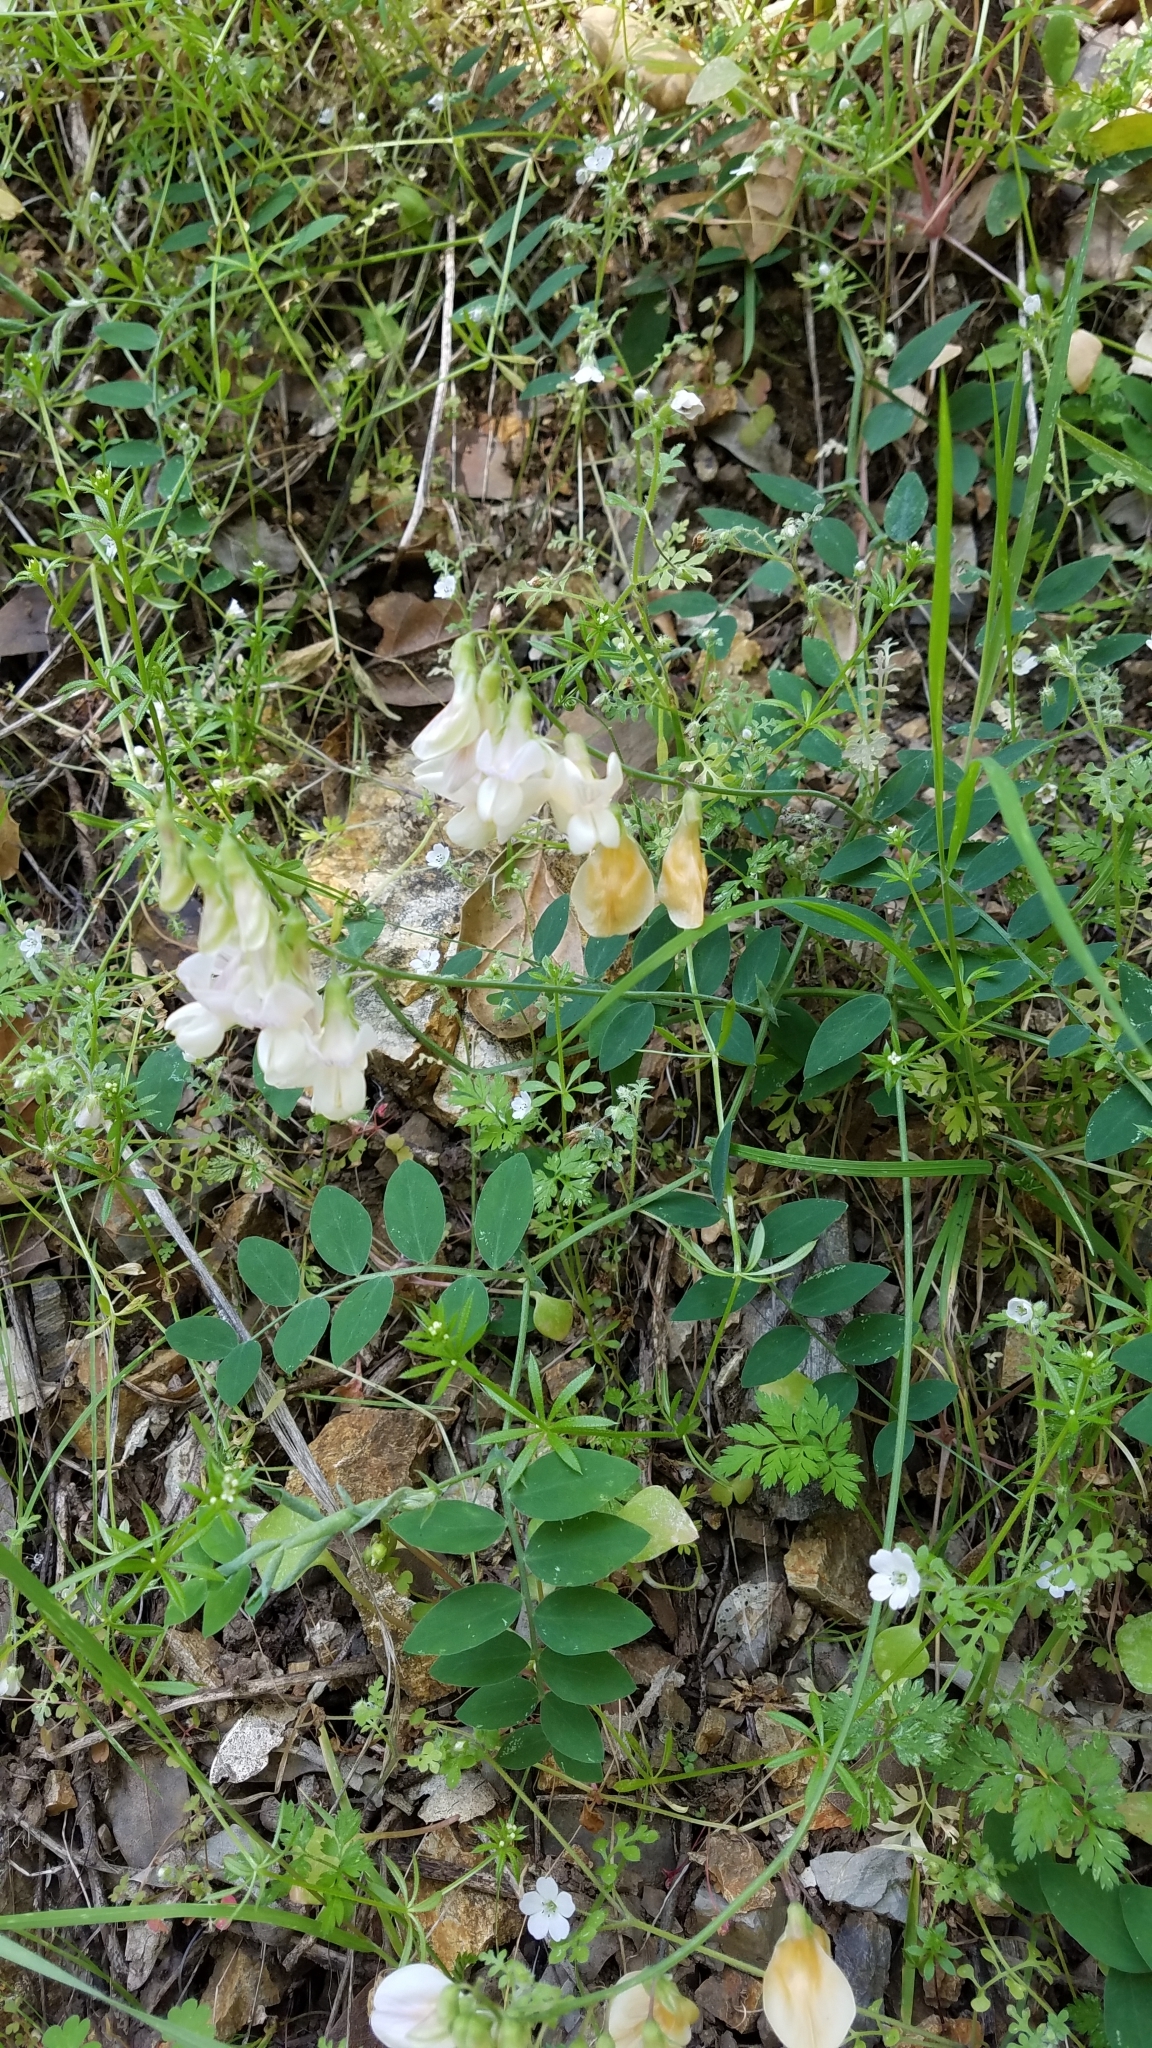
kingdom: Plantae
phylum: Tracheophyta
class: Magnoliopsida
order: Fabales
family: Fabaceae
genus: Lathyrus
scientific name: Lathyrus vestitus
